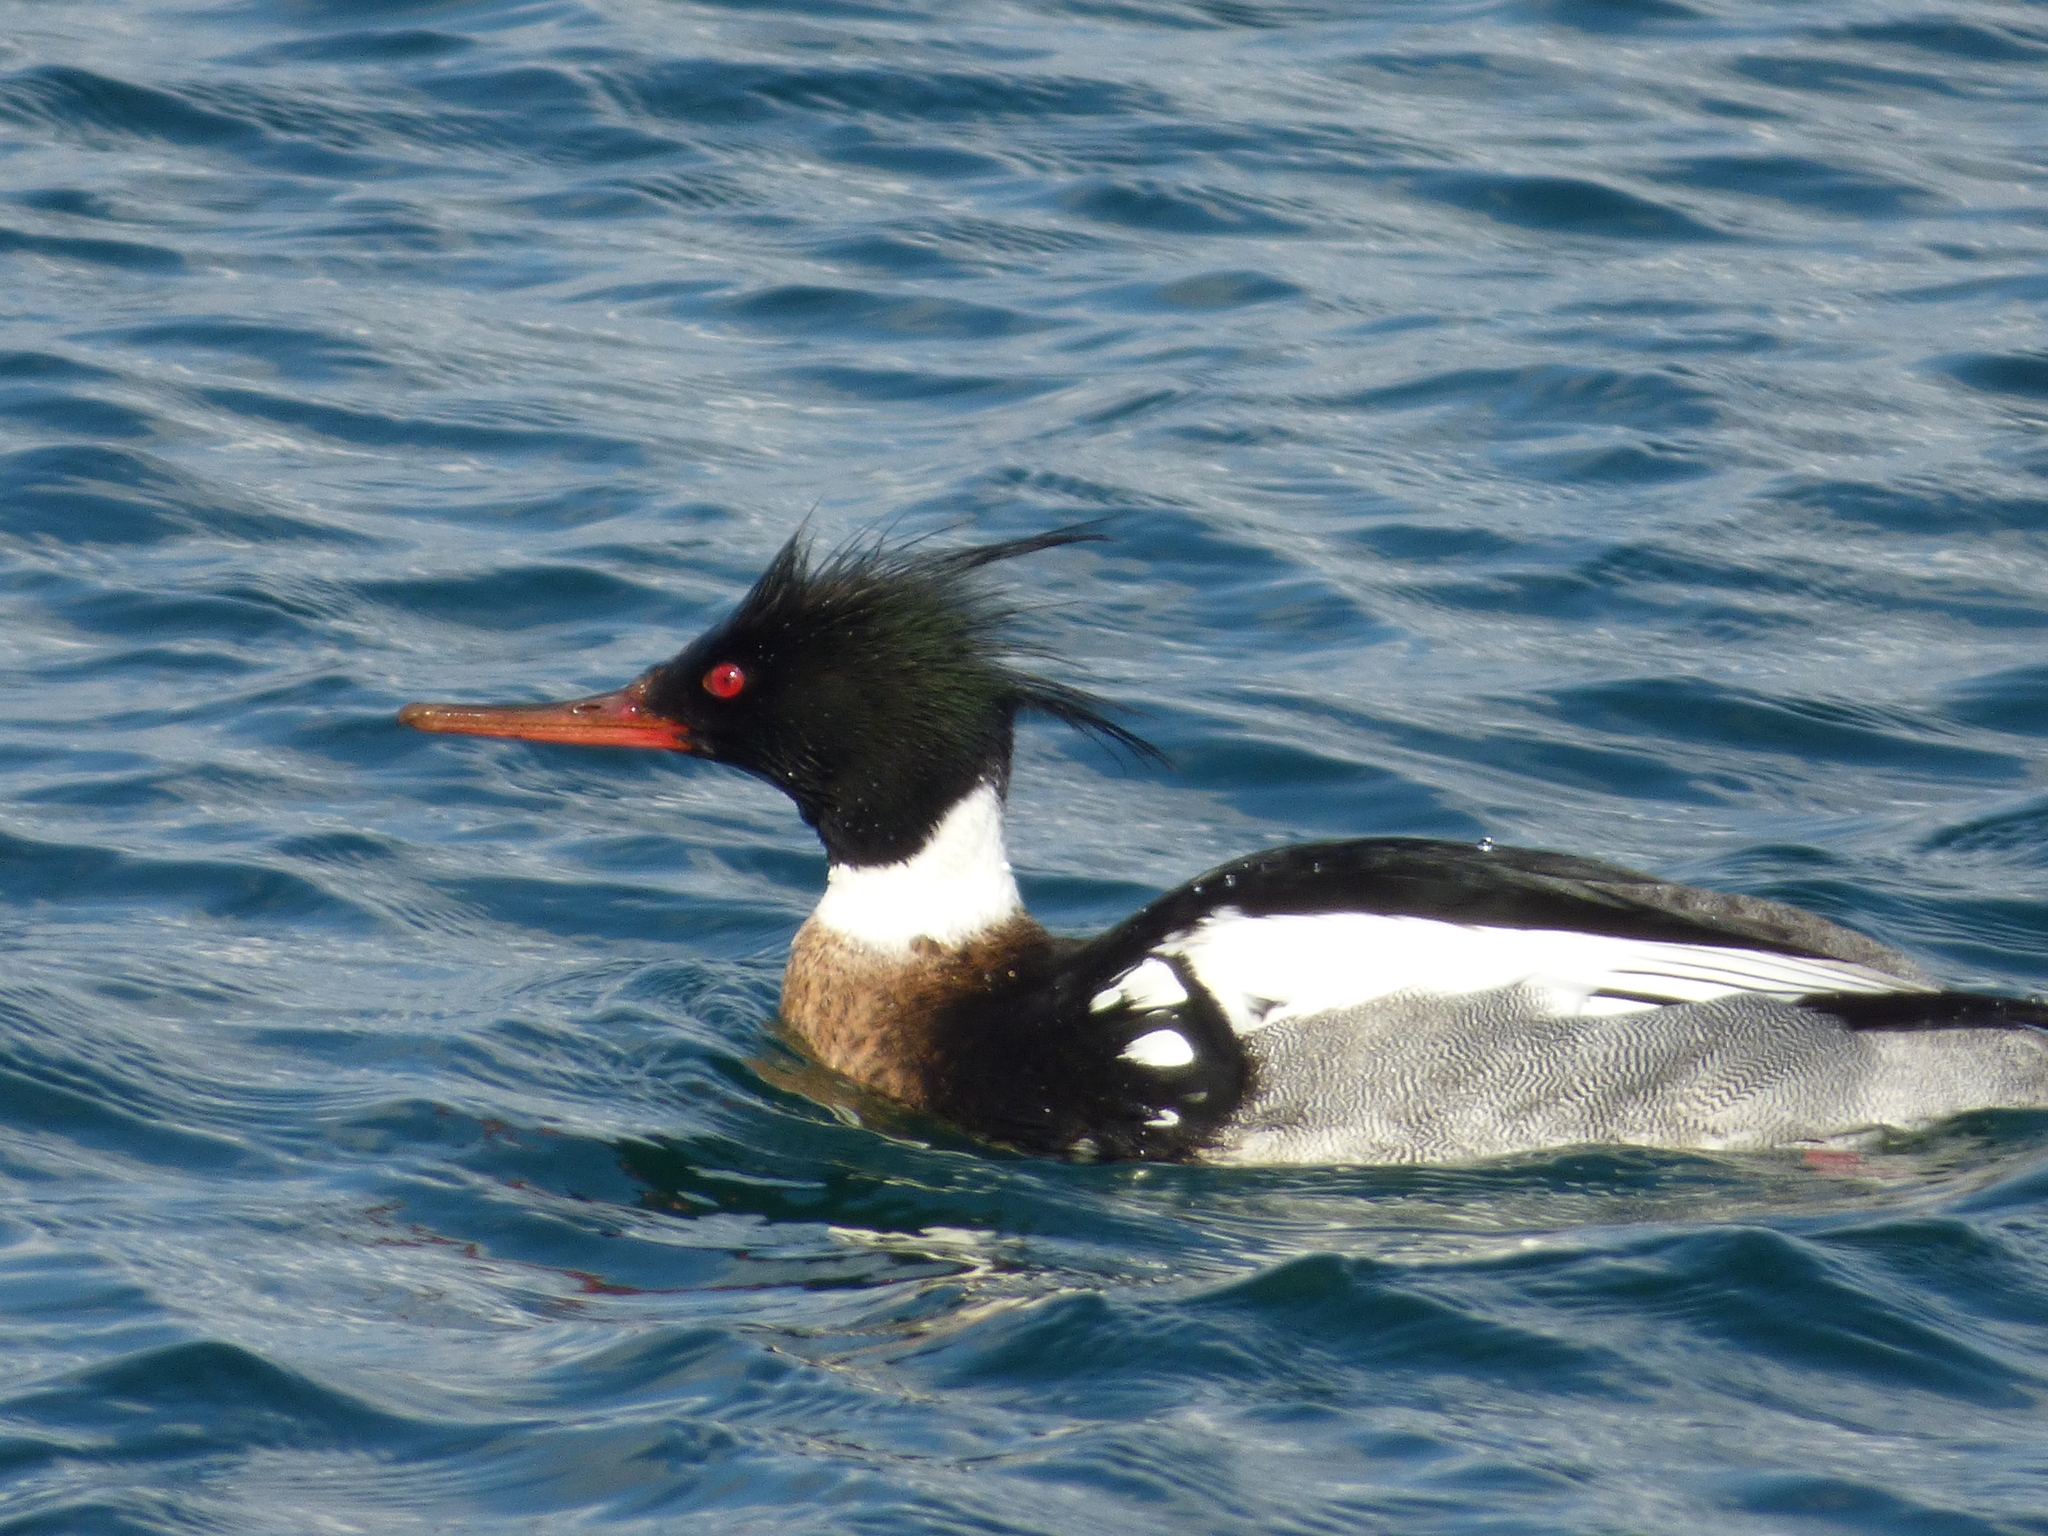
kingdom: Animalia
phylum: Chordata
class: Aves
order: Anseriformes
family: Anatidae
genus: Mergus
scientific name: Mergus serrator
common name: Red-breasted merganser
